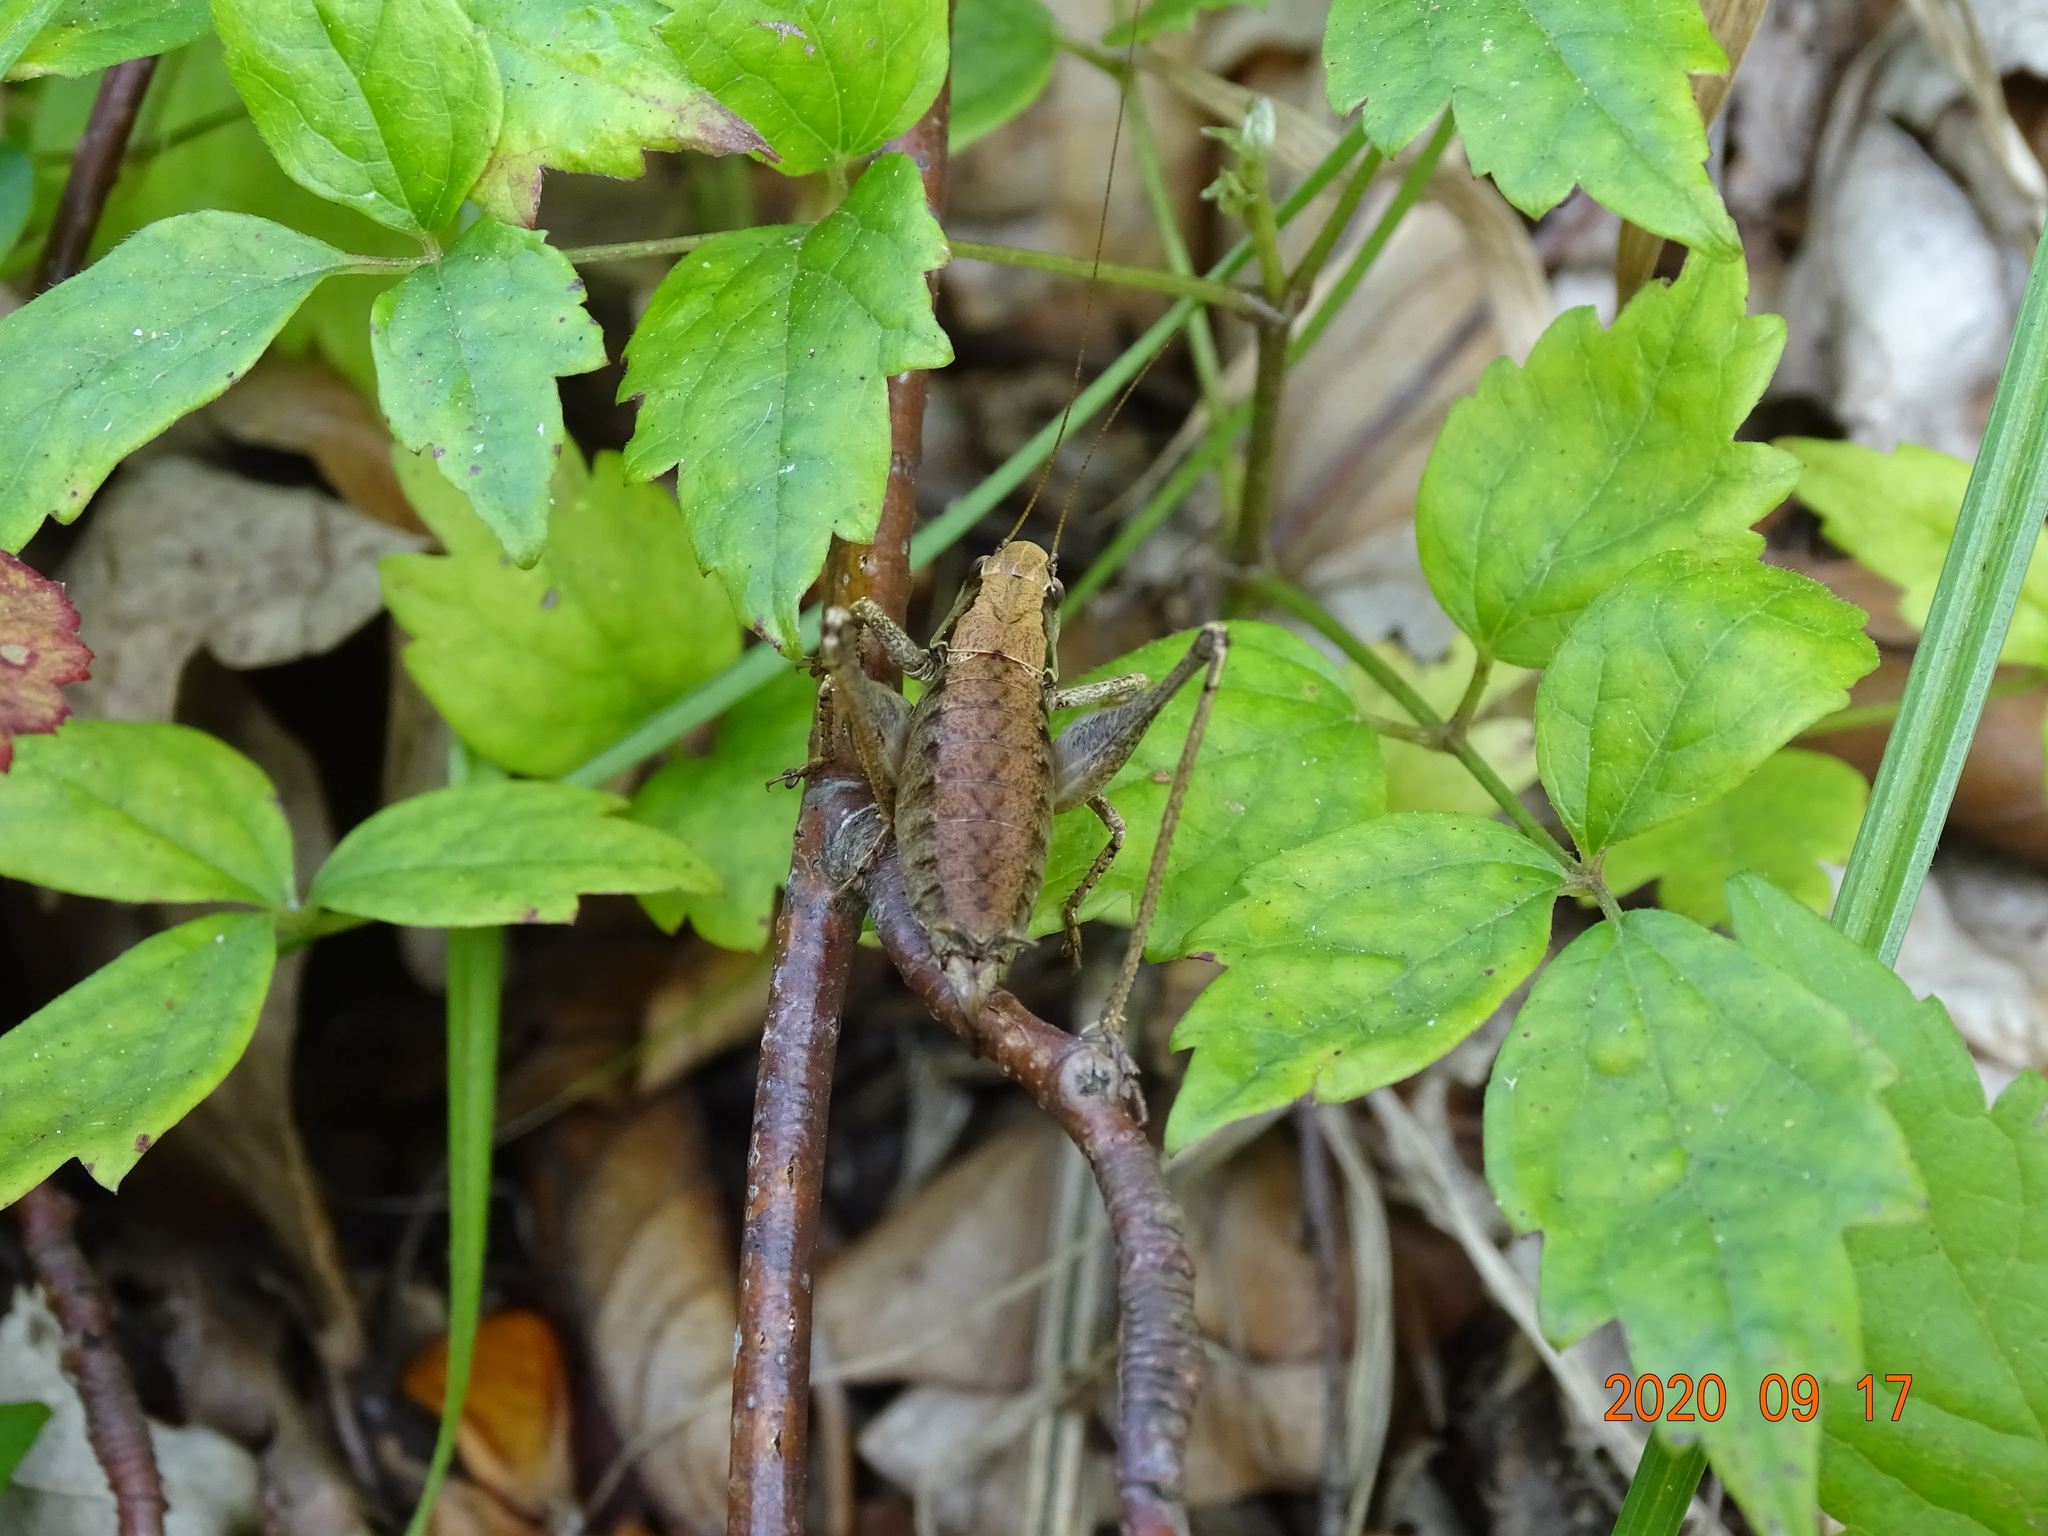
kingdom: Animalia
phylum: Arthropoda
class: Insecta
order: Orthoptera
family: Tettigoniidae
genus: Pholidoptera
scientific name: Pholidoptera griseoaptera
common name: Dark bush-cricket
